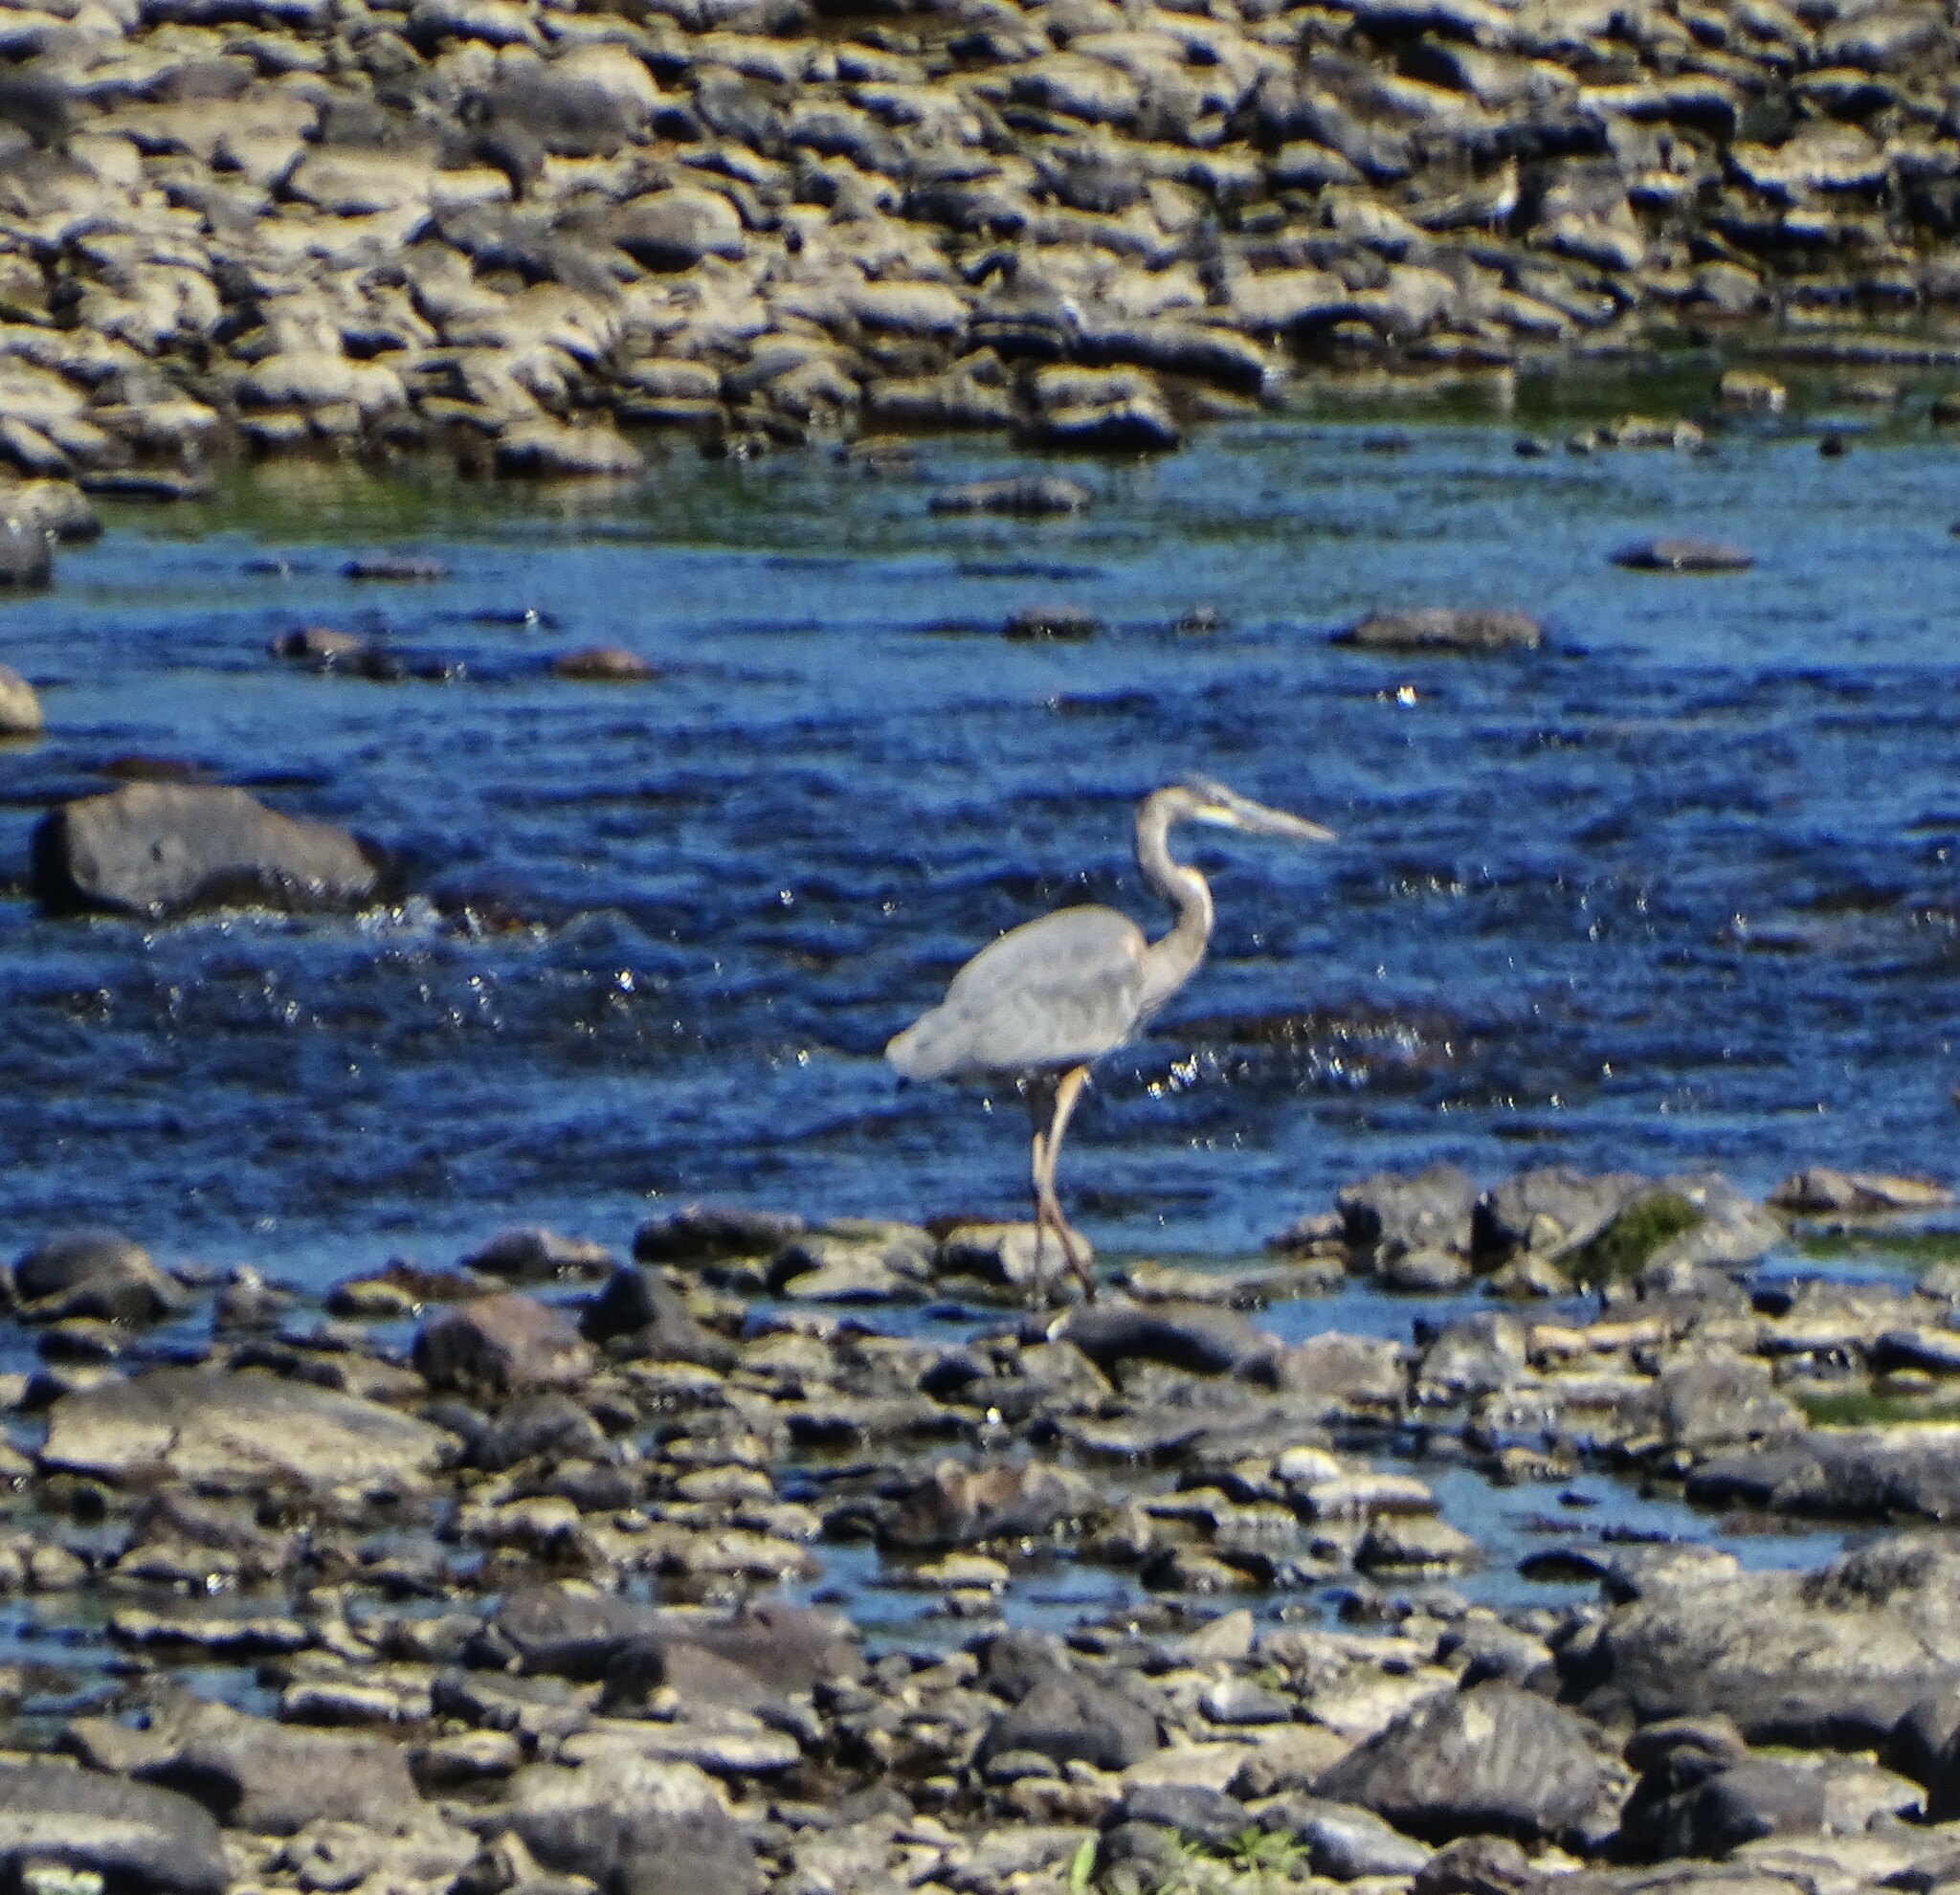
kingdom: Animalia
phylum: Chordata
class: Aves
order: Pelecaniformes
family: Ardeidae
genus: Ardea
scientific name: Ardea herodias
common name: Great blue heron
